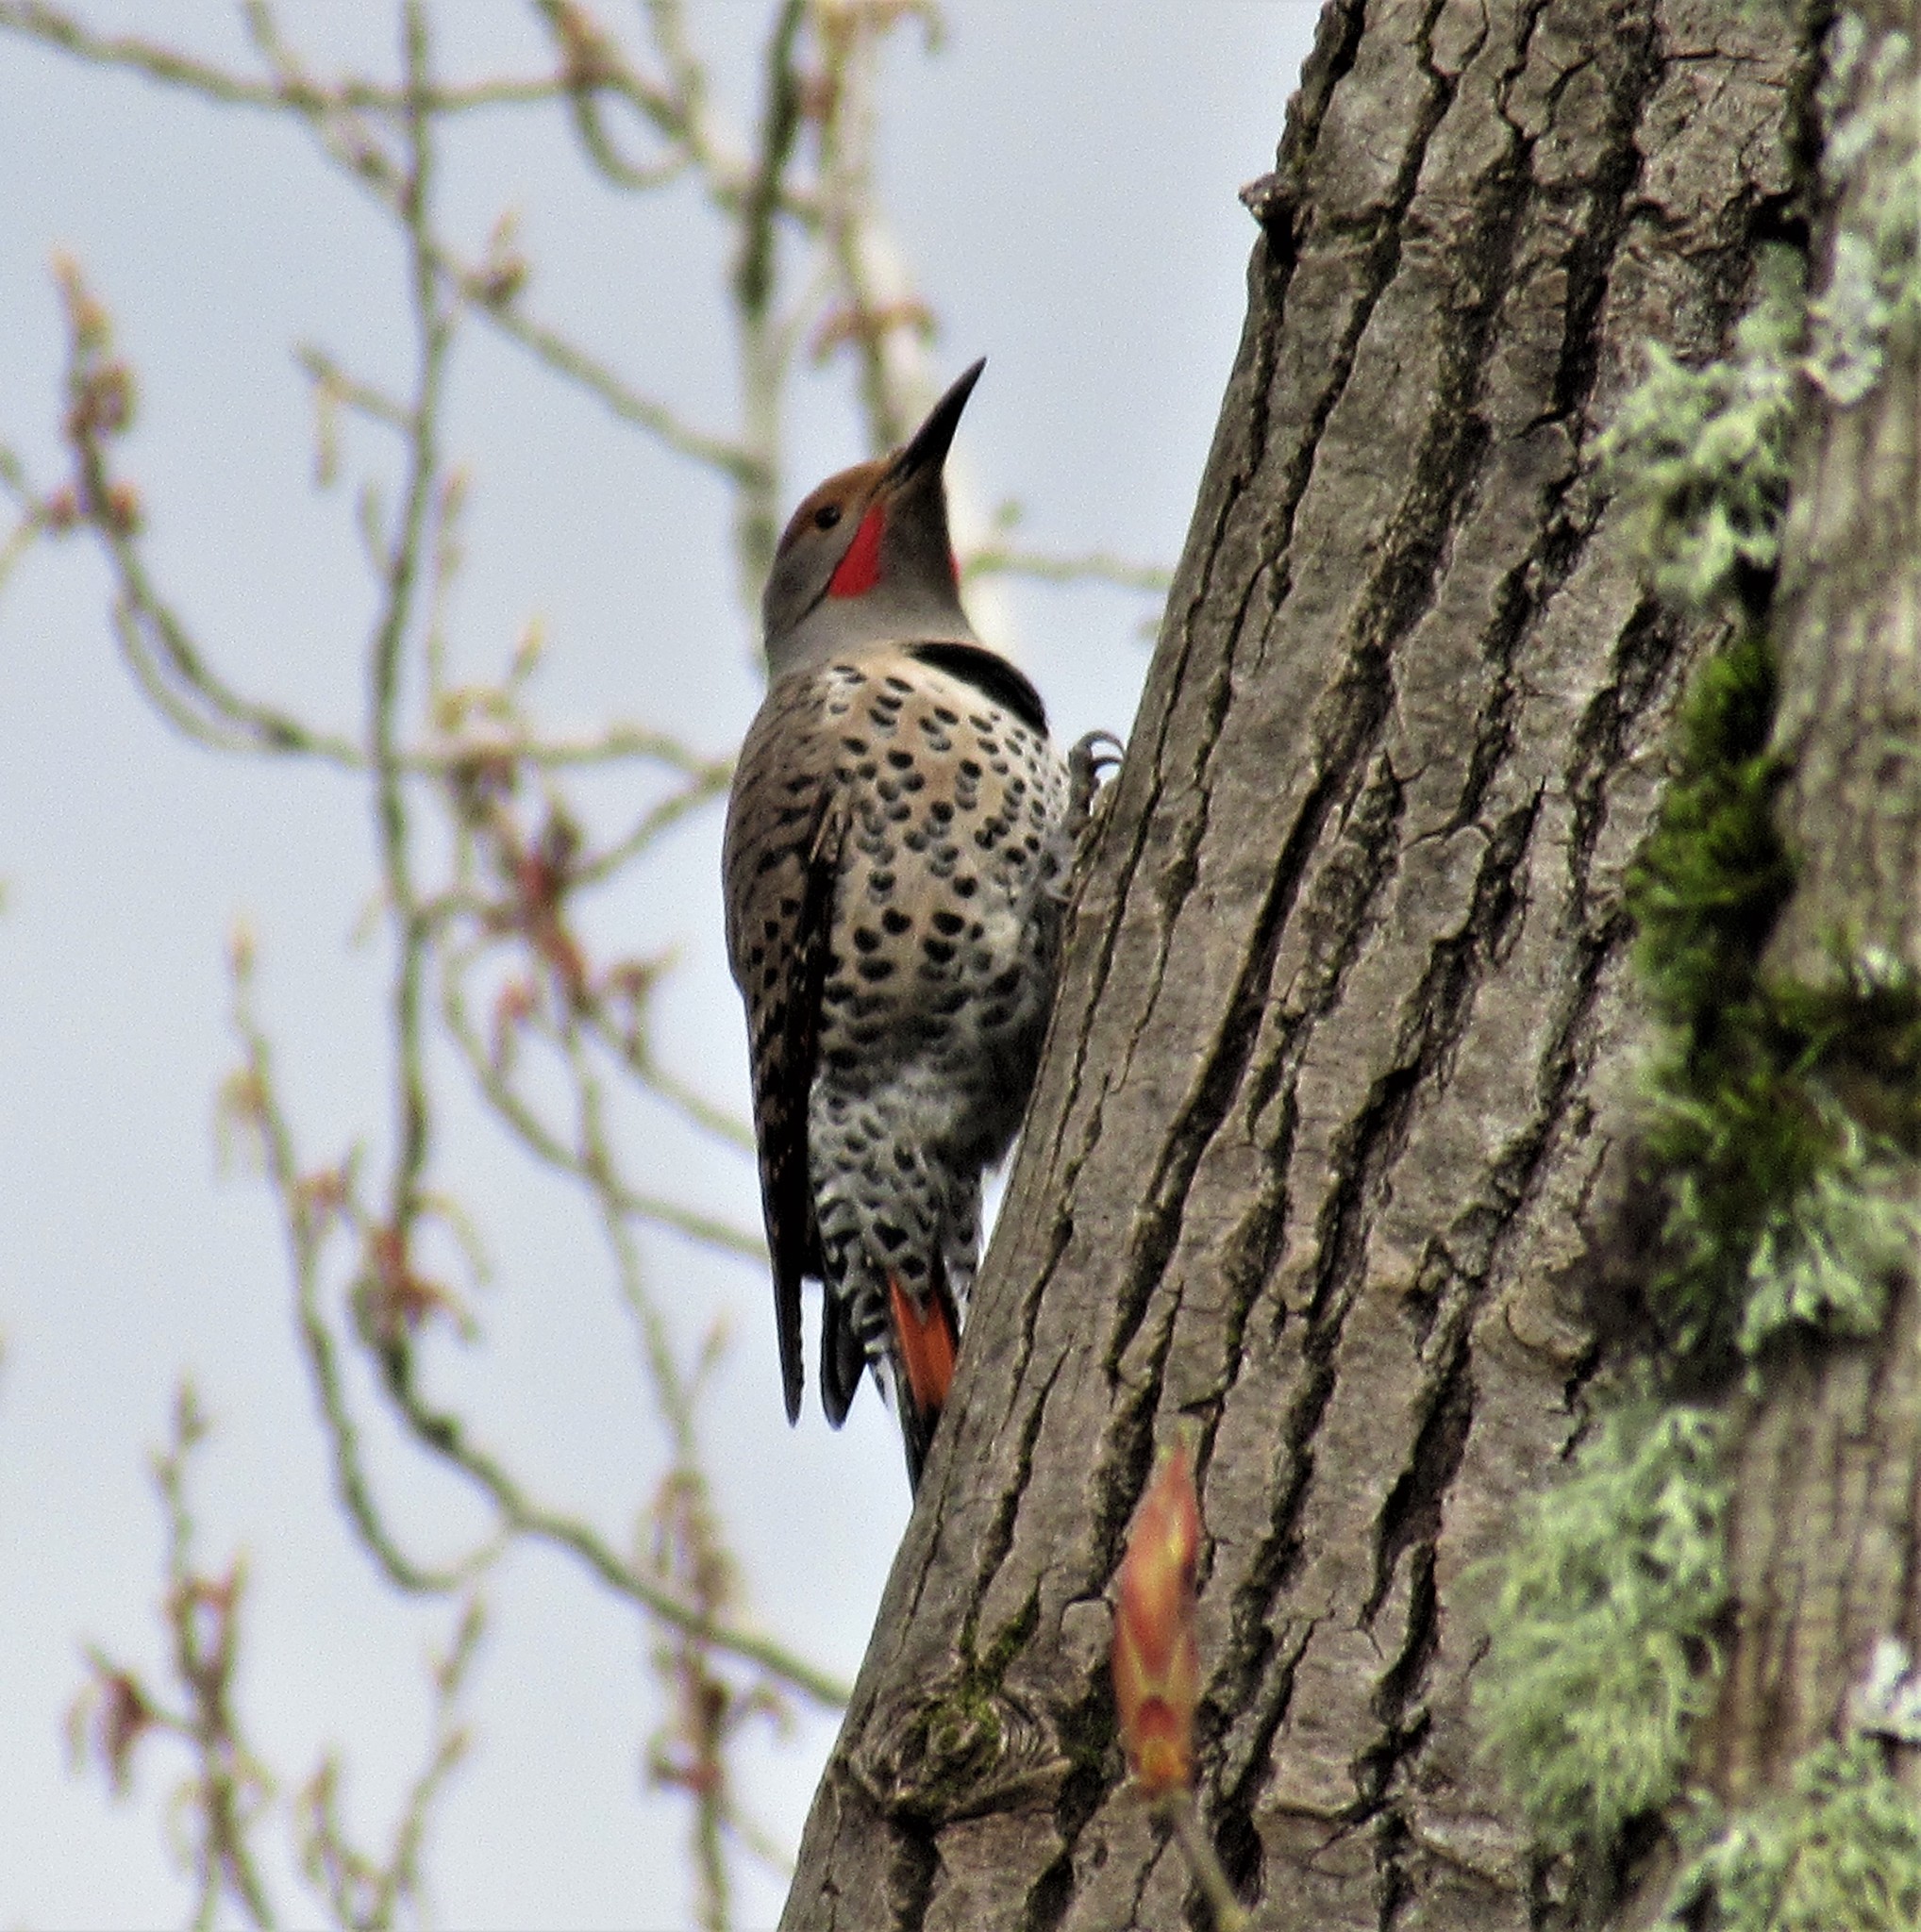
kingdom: Animalia
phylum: Chordata
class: Aves
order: Piciformes
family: Picidae
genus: Colaptes
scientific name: Colaptes auratus
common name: Northern flicker
